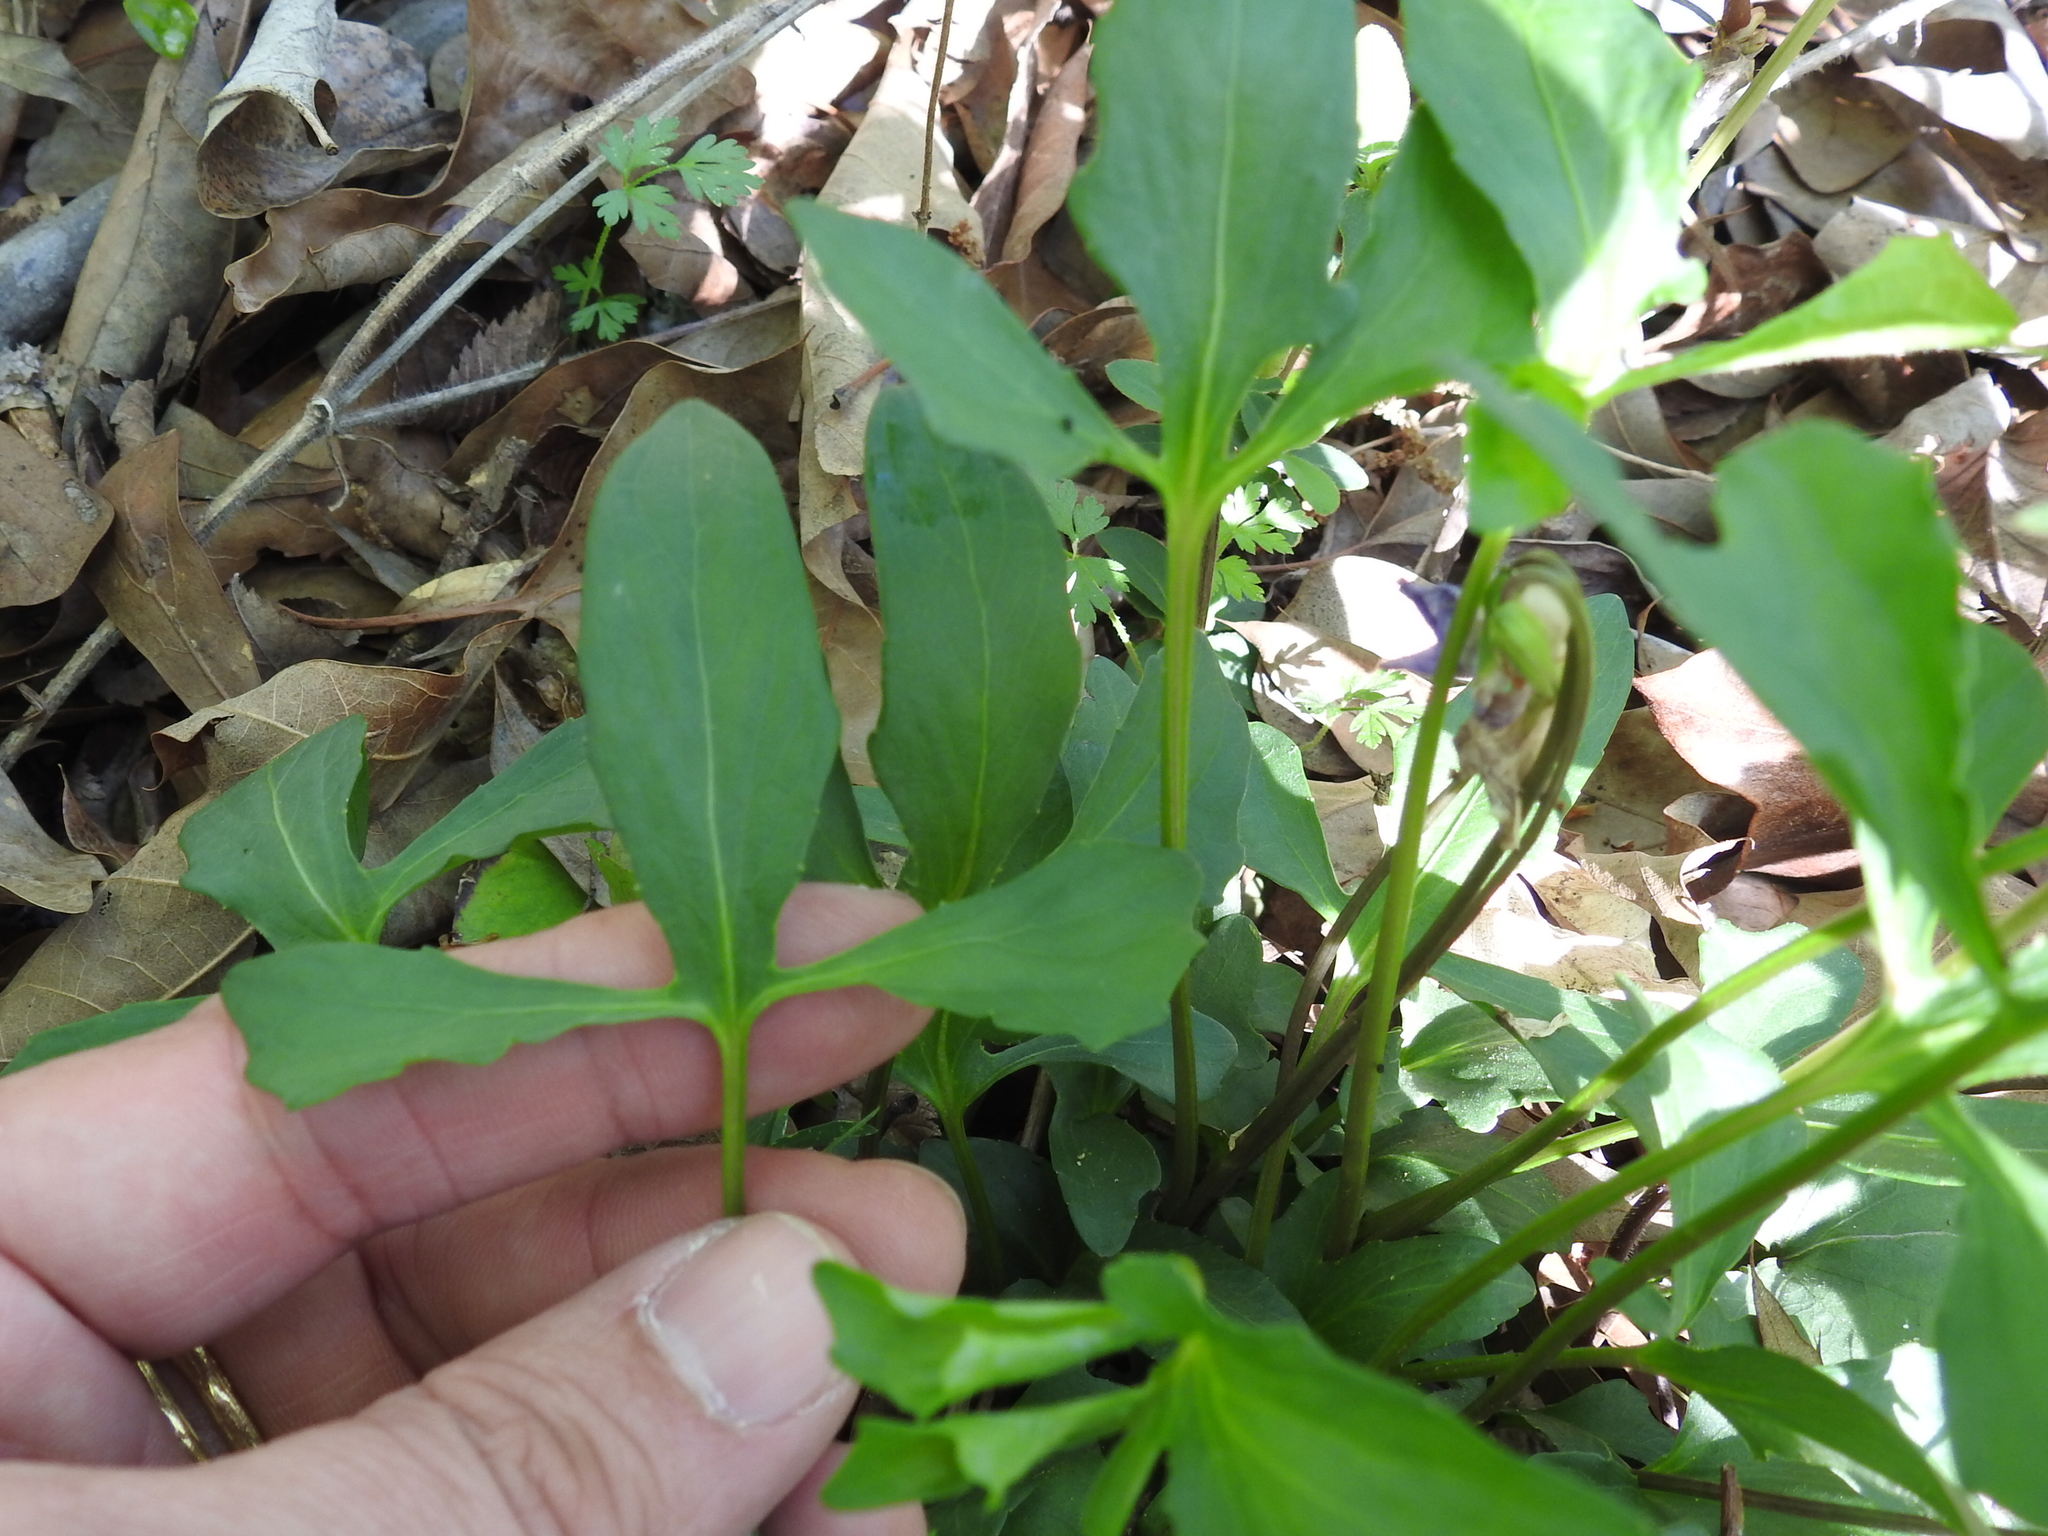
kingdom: Plantae
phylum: Tracheophyta
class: Magnoliopsida
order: Malpighiales
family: Violaceae
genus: Viola
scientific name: Viola palmata
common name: Early blue violet
